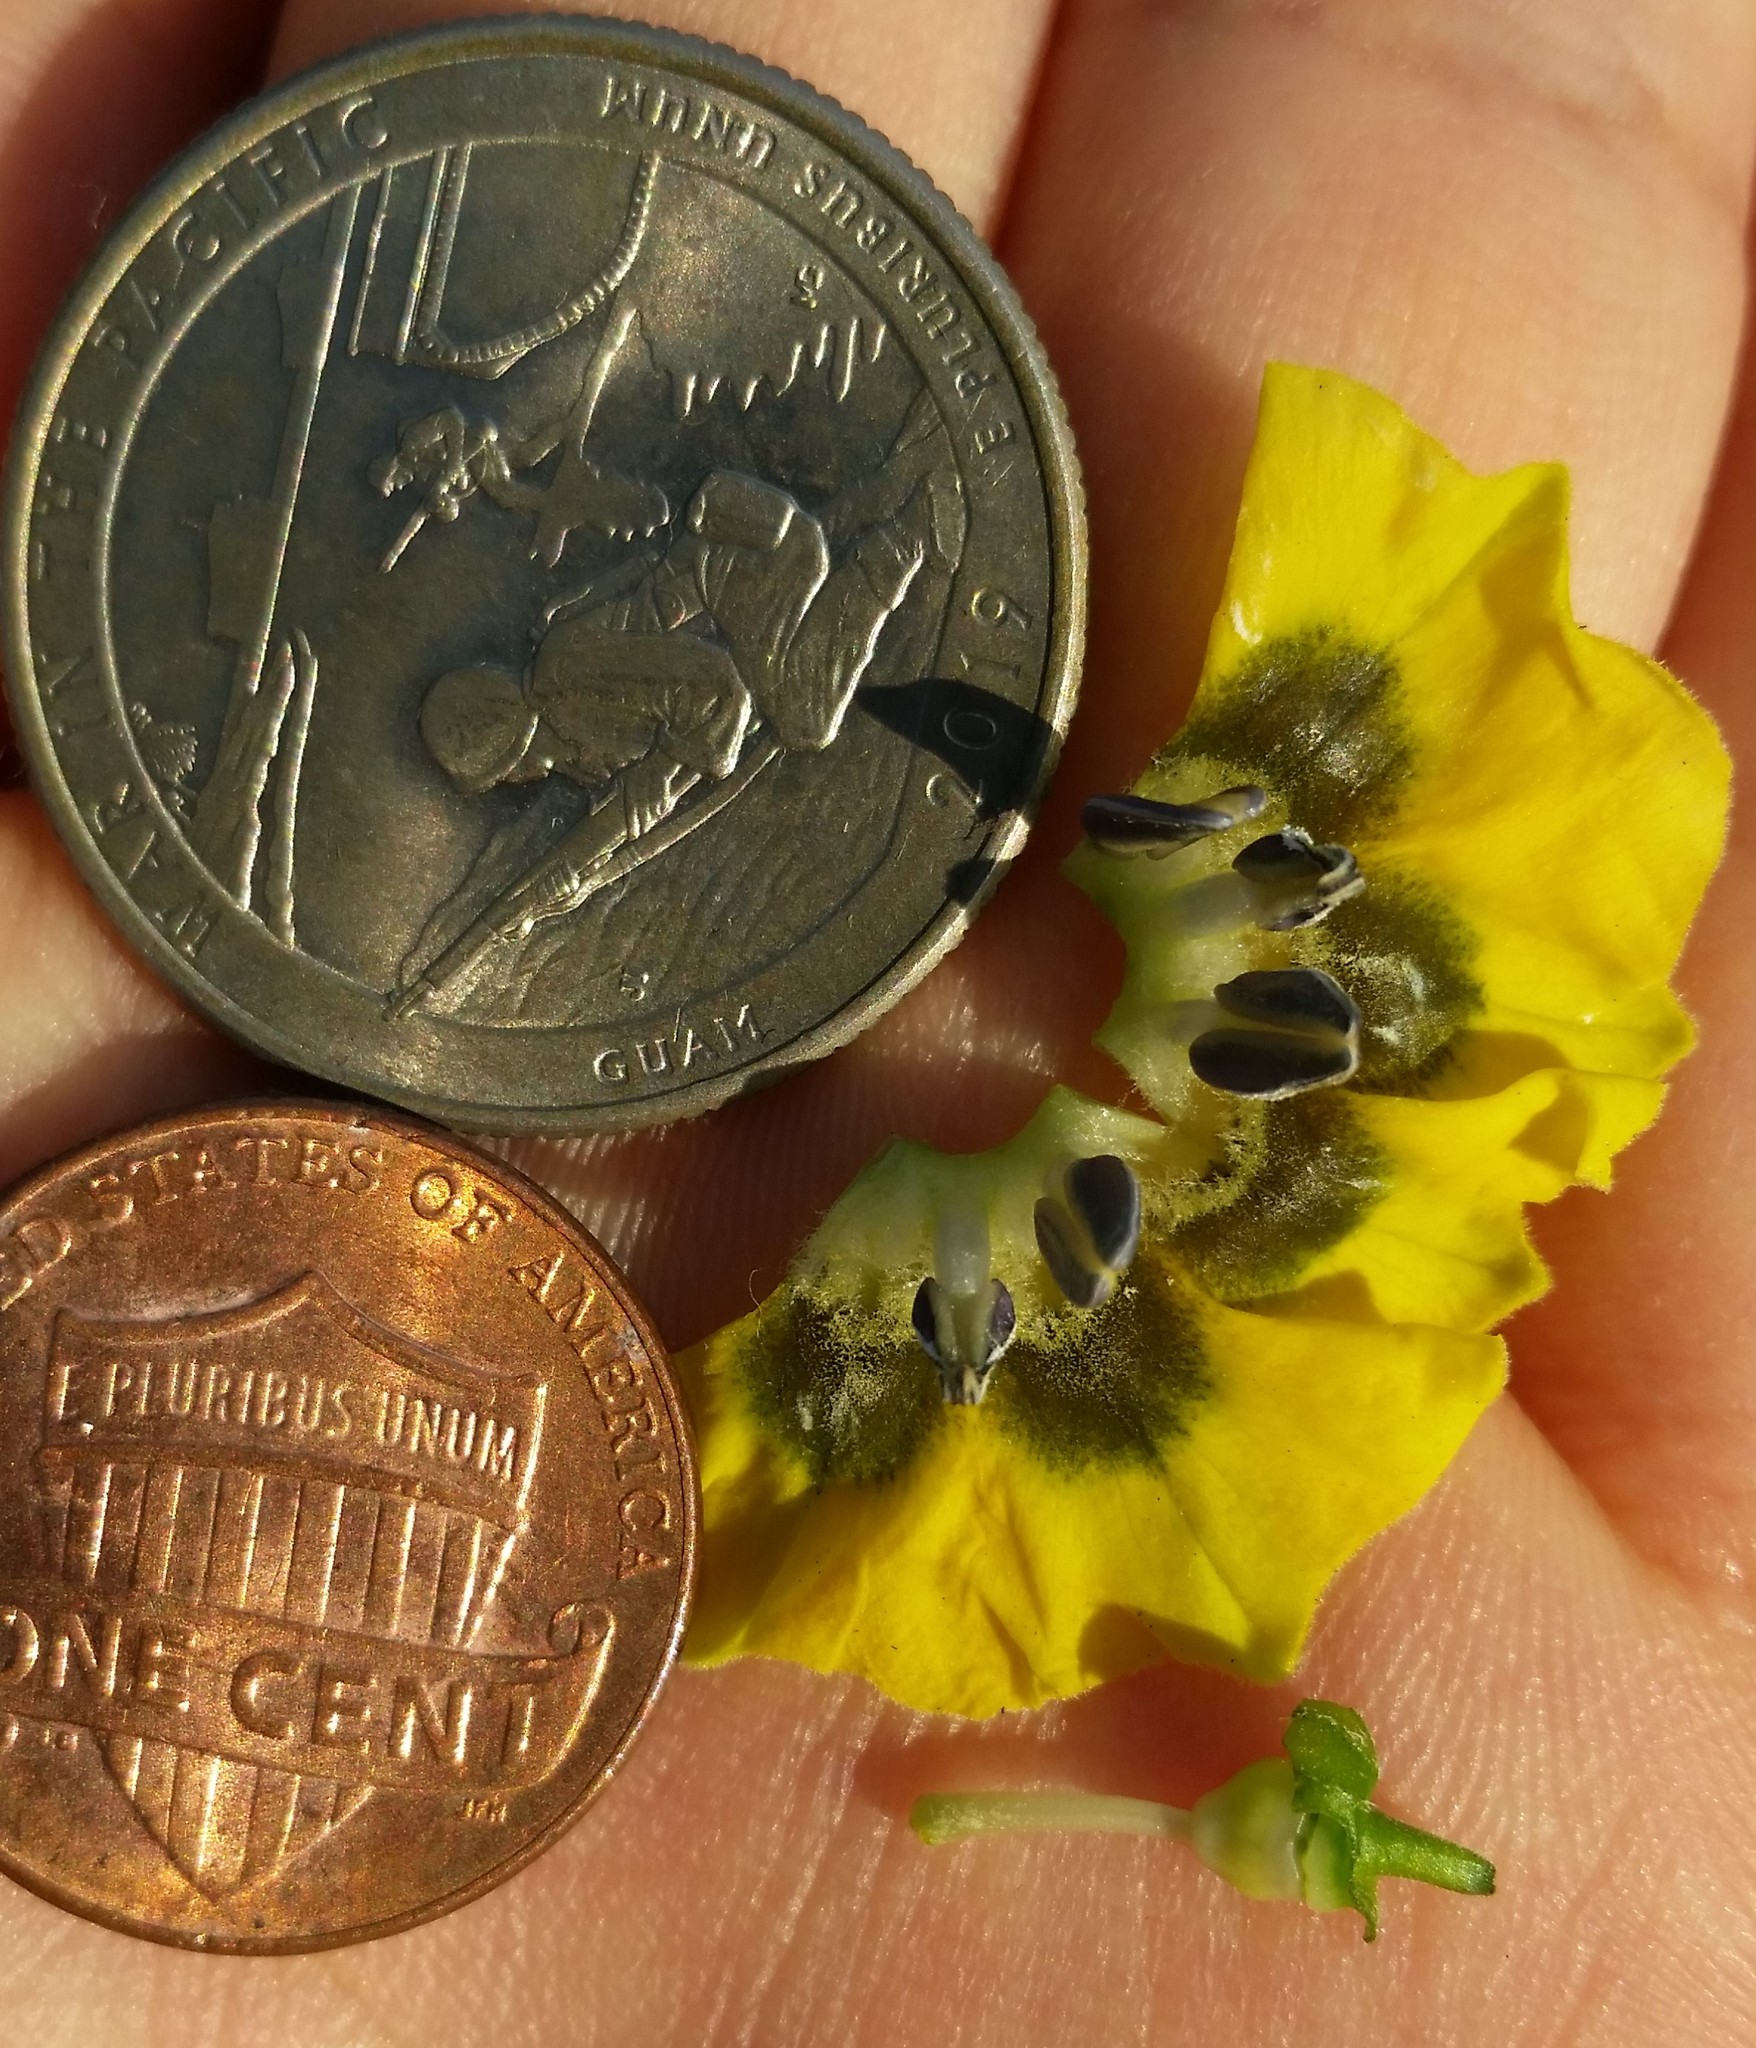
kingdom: Plantae
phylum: Tracheophyta
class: Magnoliopsida
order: Solanales
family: Solanaceae
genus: Physalis
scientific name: Physalis philadelphica
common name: Husk-tomato
